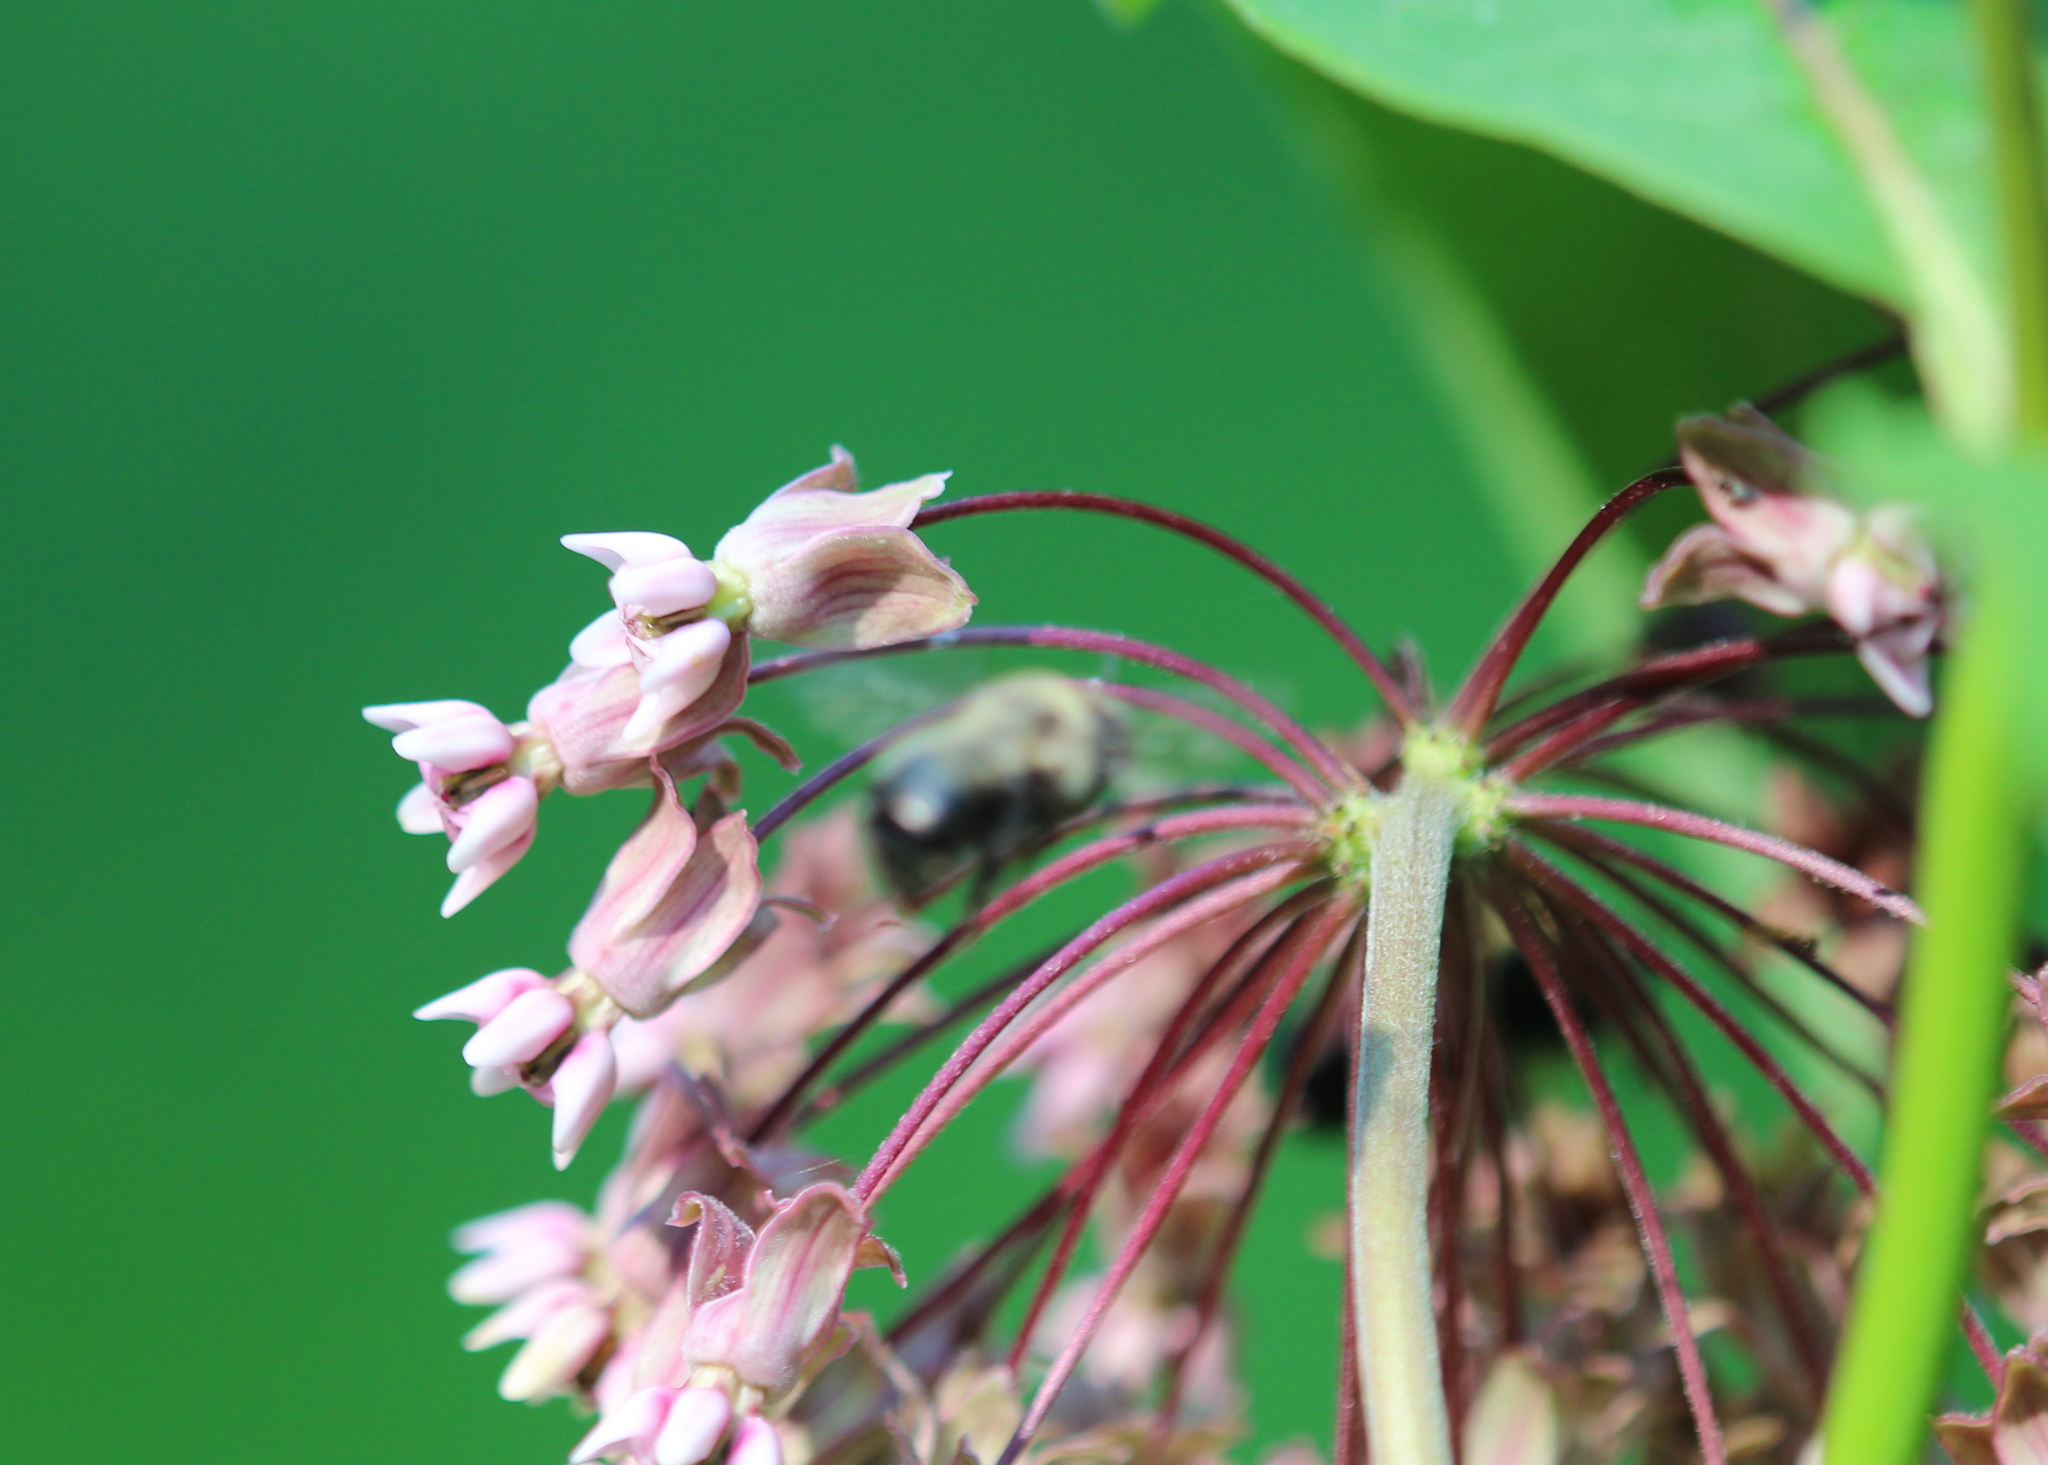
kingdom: Plantae
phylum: Tracheophyta
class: Magnoliopsida
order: Gentianales
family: Apocynaceae
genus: Asclepias
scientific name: Asclepias syriaca
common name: Common milkweed
